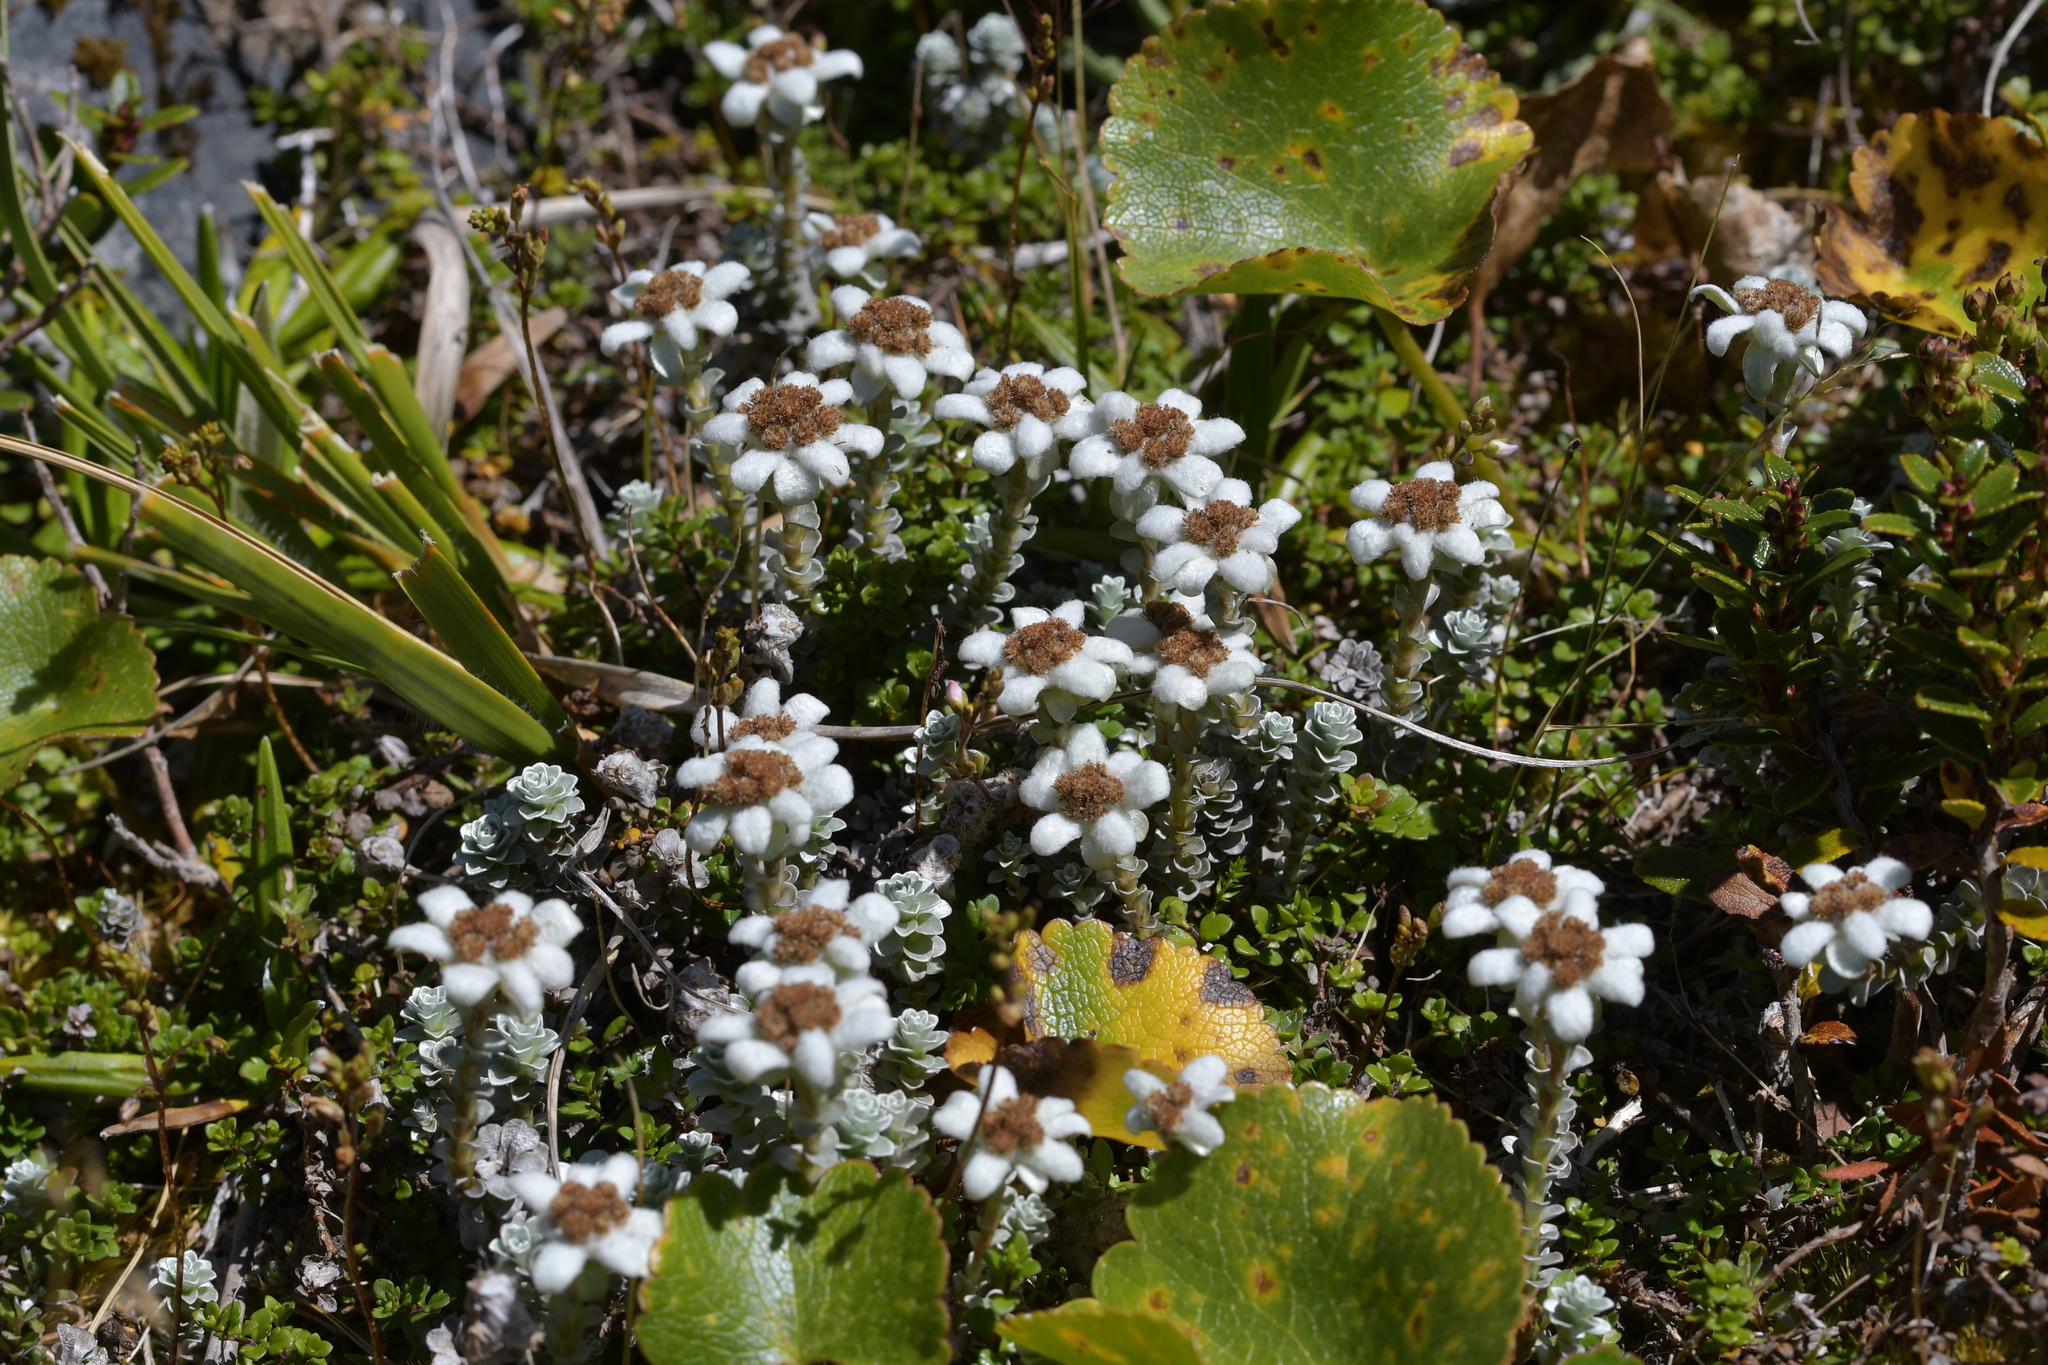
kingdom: Plantae
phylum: Tracheophyta
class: Magnoliopsida
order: Asterales
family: Asteraceae
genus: Leucogenes
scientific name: Leucogenes grandiceps
